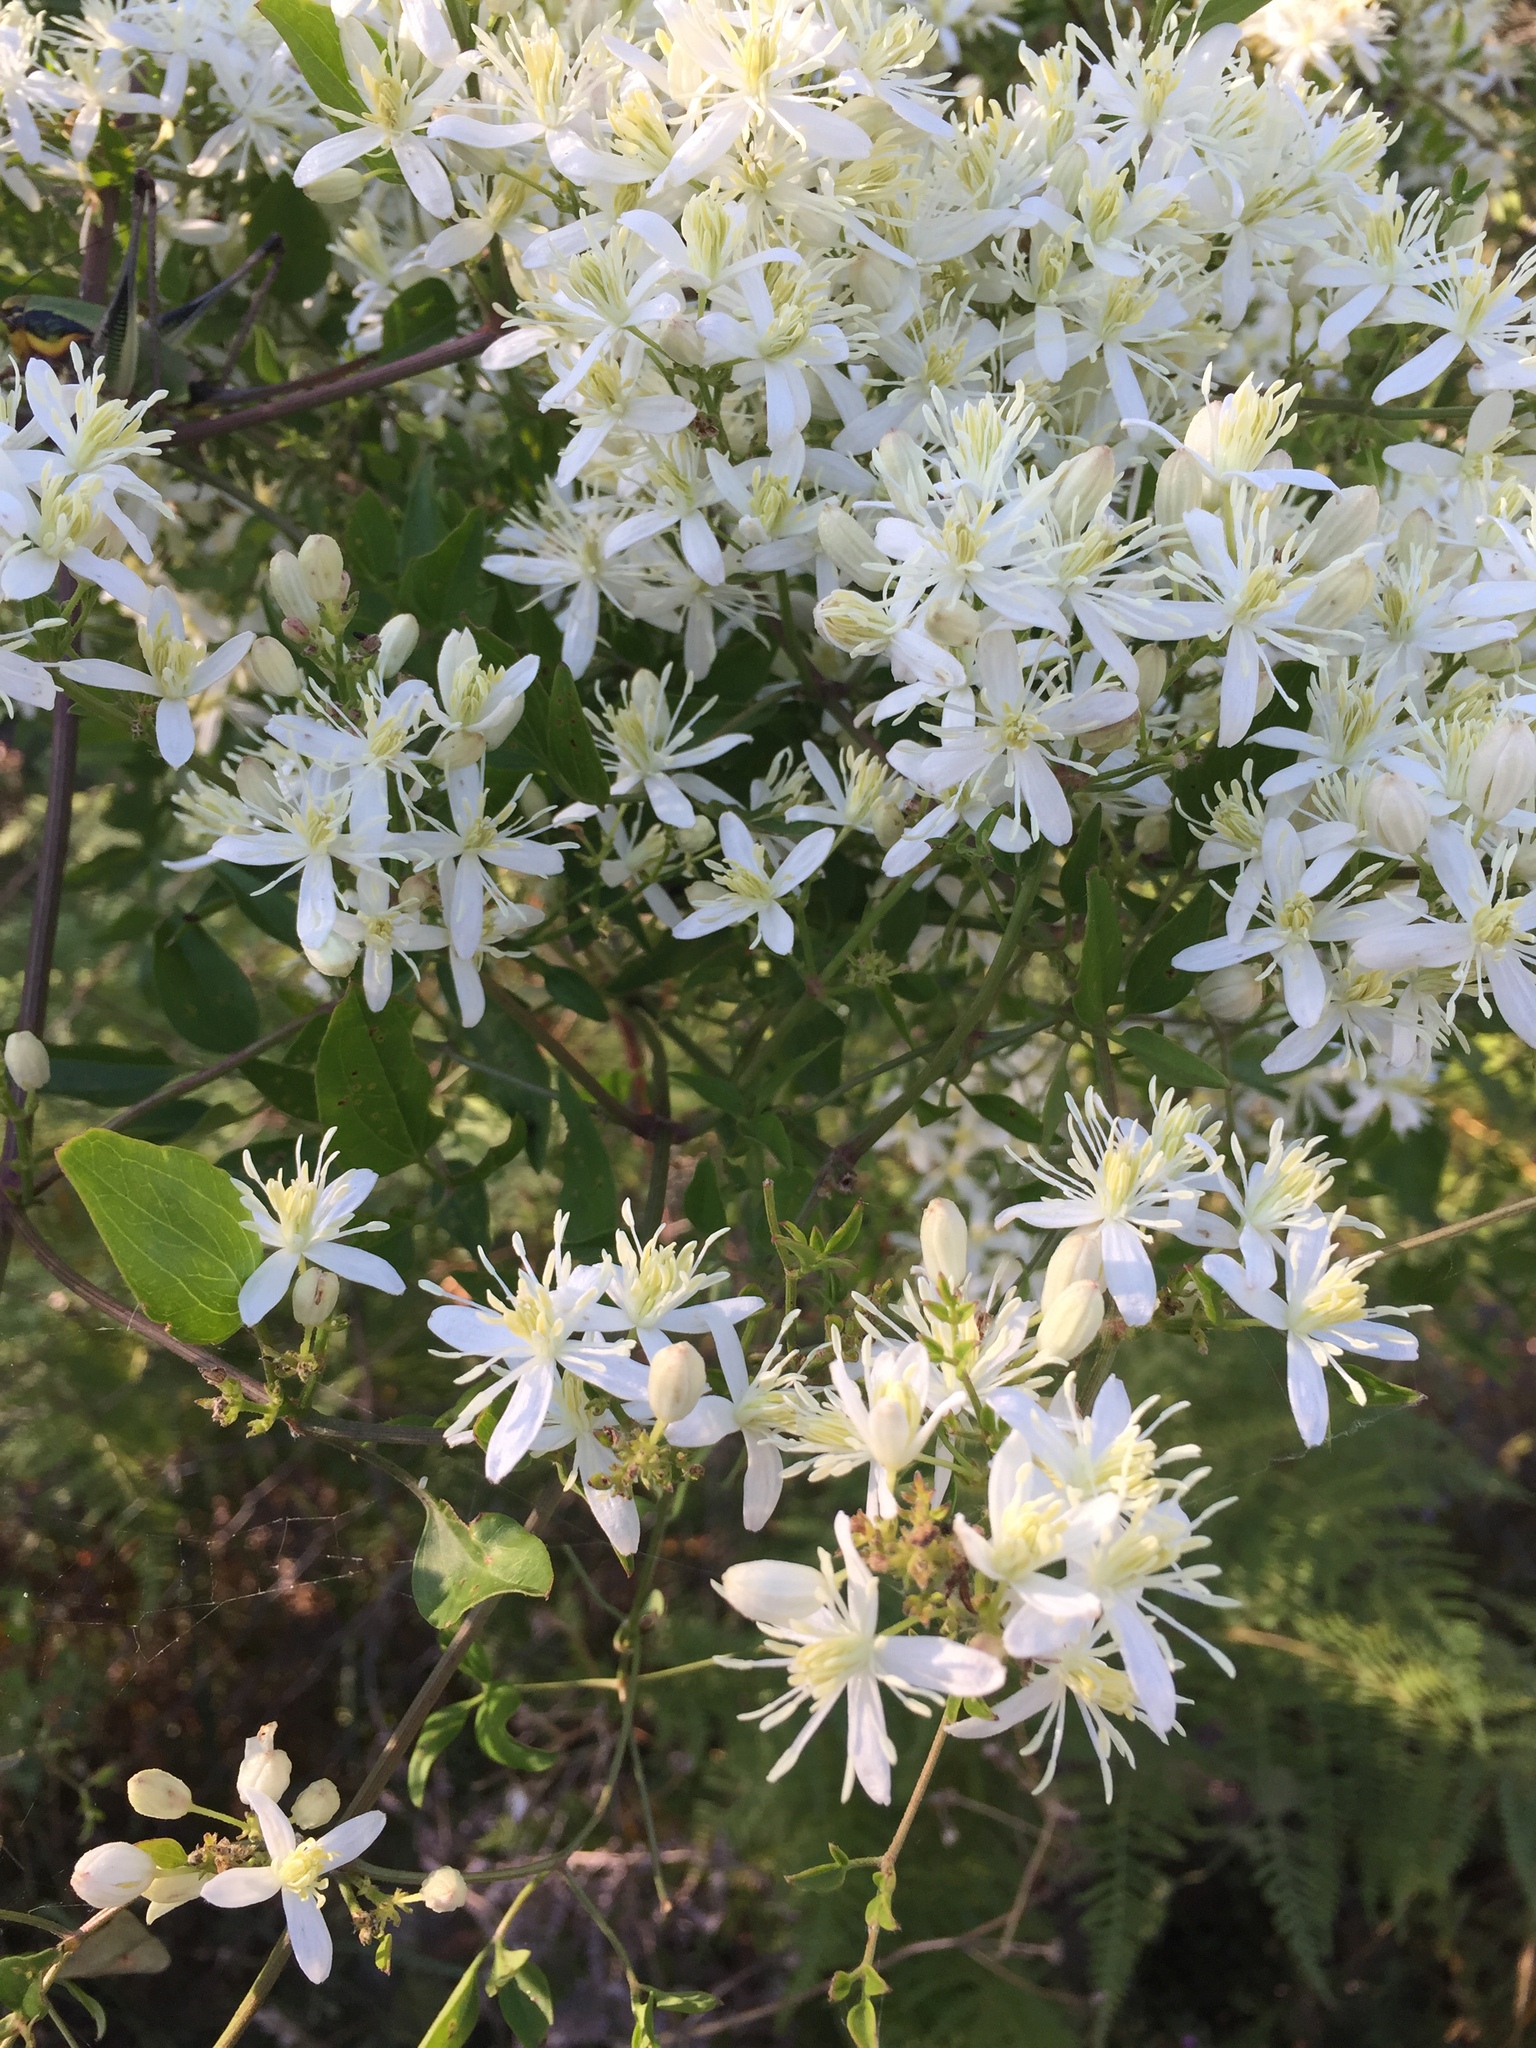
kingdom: Plantae
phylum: Tracheophyta
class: Magnoliopsida
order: Ranunculales
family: Ranunculaceae
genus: Clematis
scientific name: Clematis flammula
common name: Virgin's-bower
